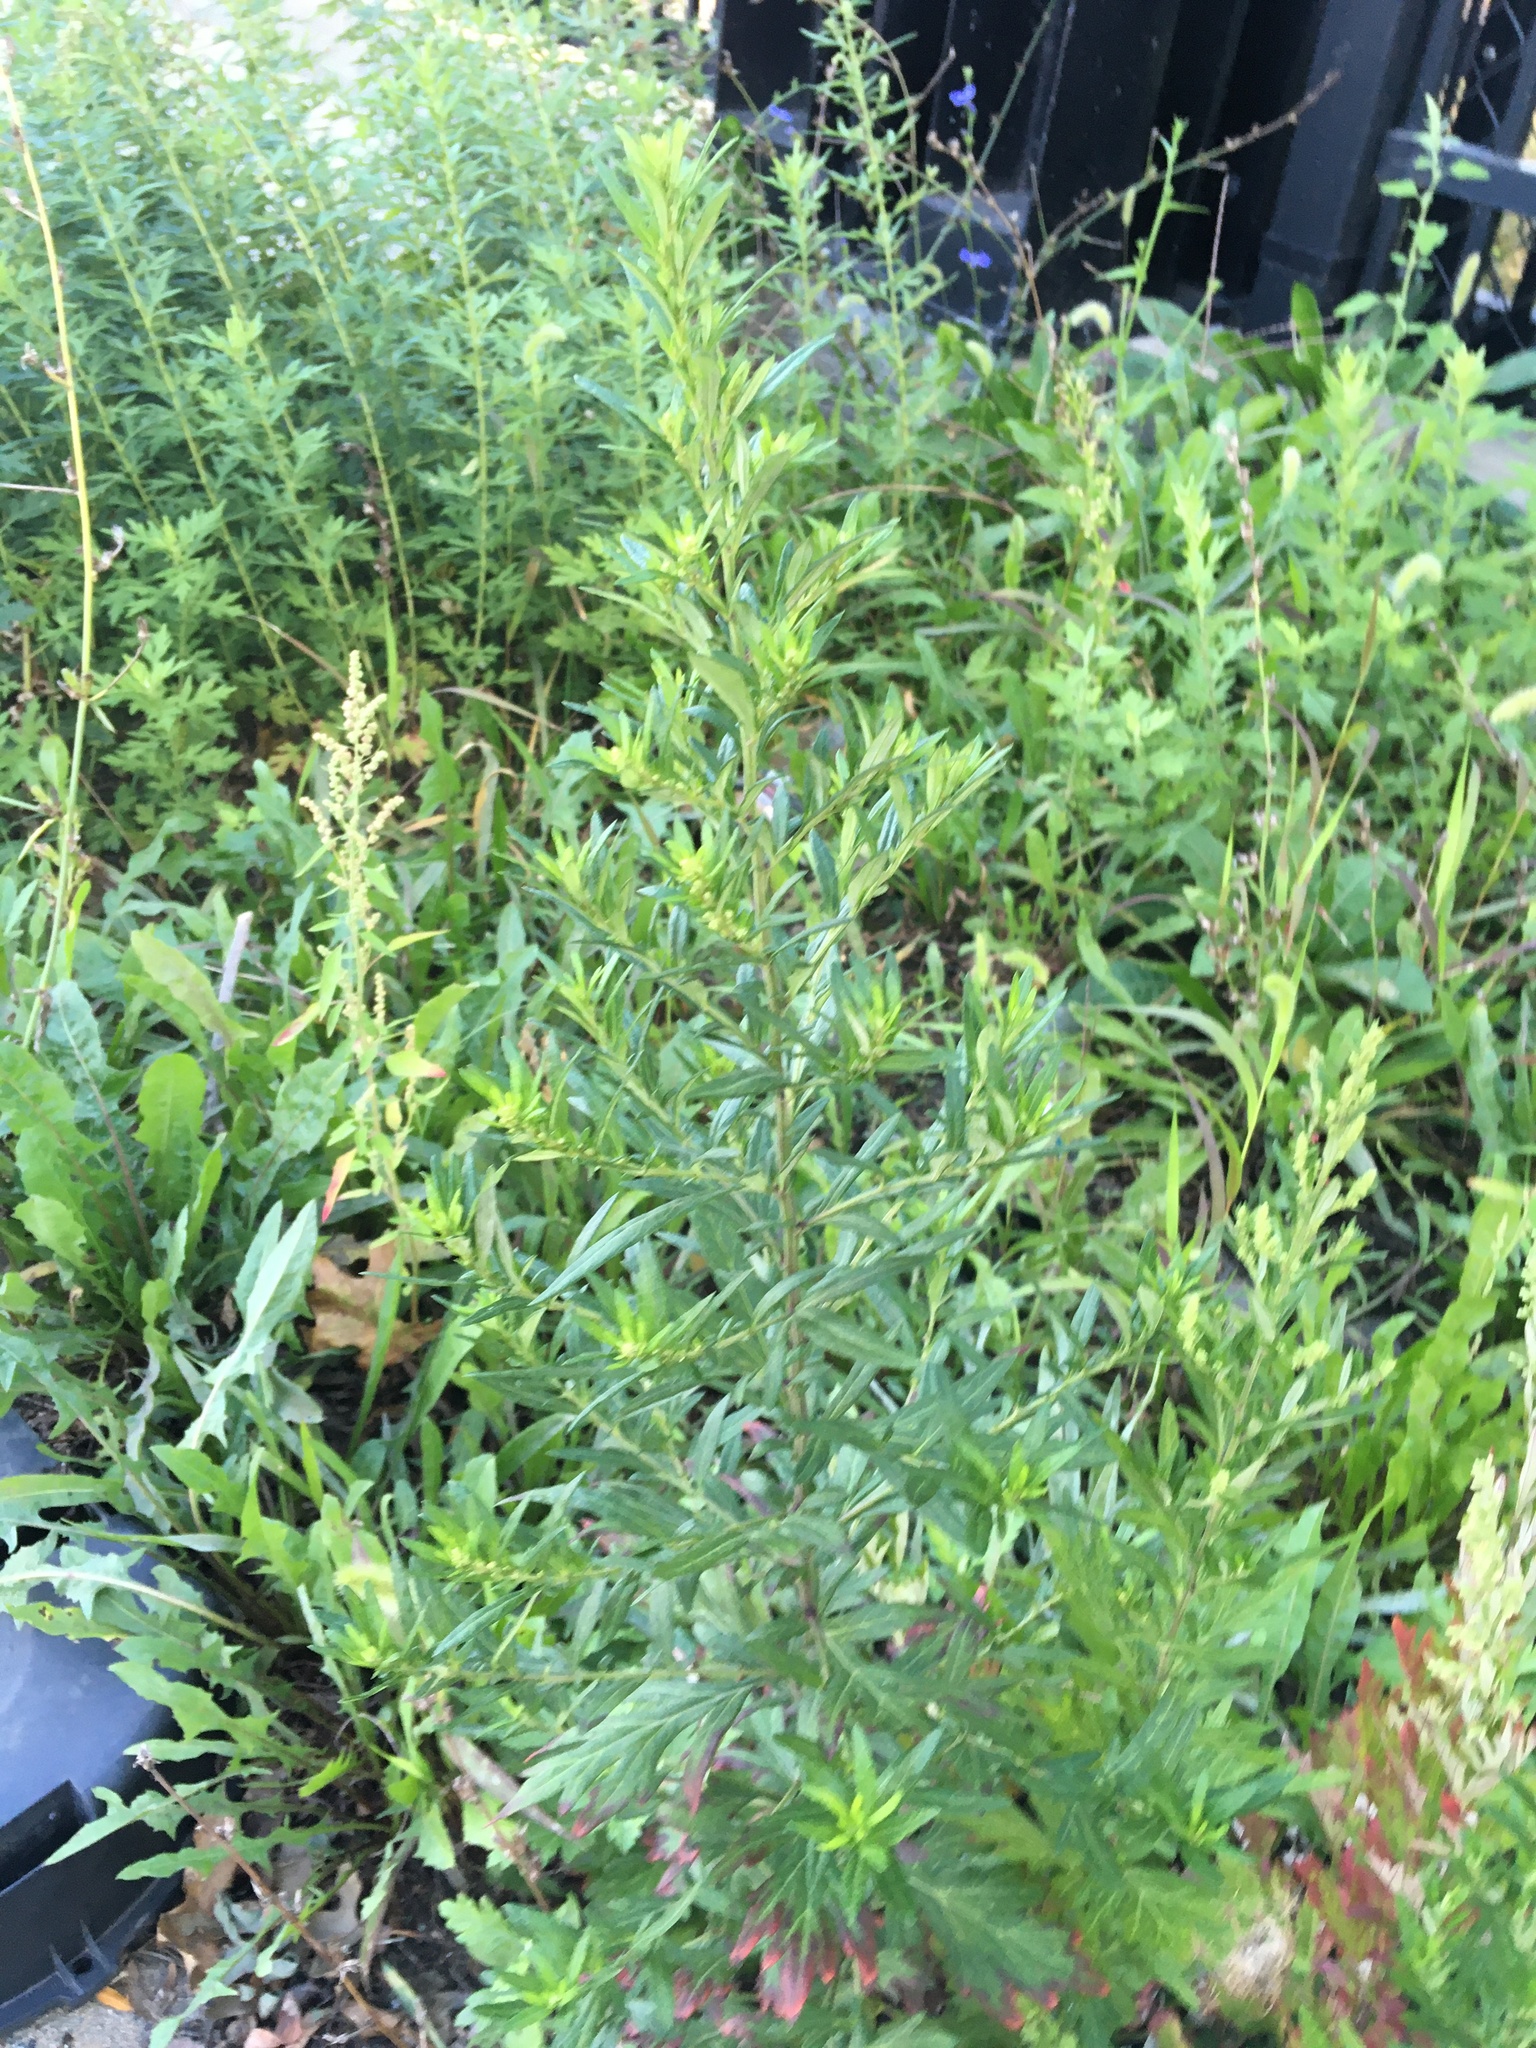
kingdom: Plantae
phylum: Tracheophyta
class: Magnoliopsida
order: Asterales
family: Asteraceae
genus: Artemisia
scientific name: Artemisia vulgaris
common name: Mugwort
